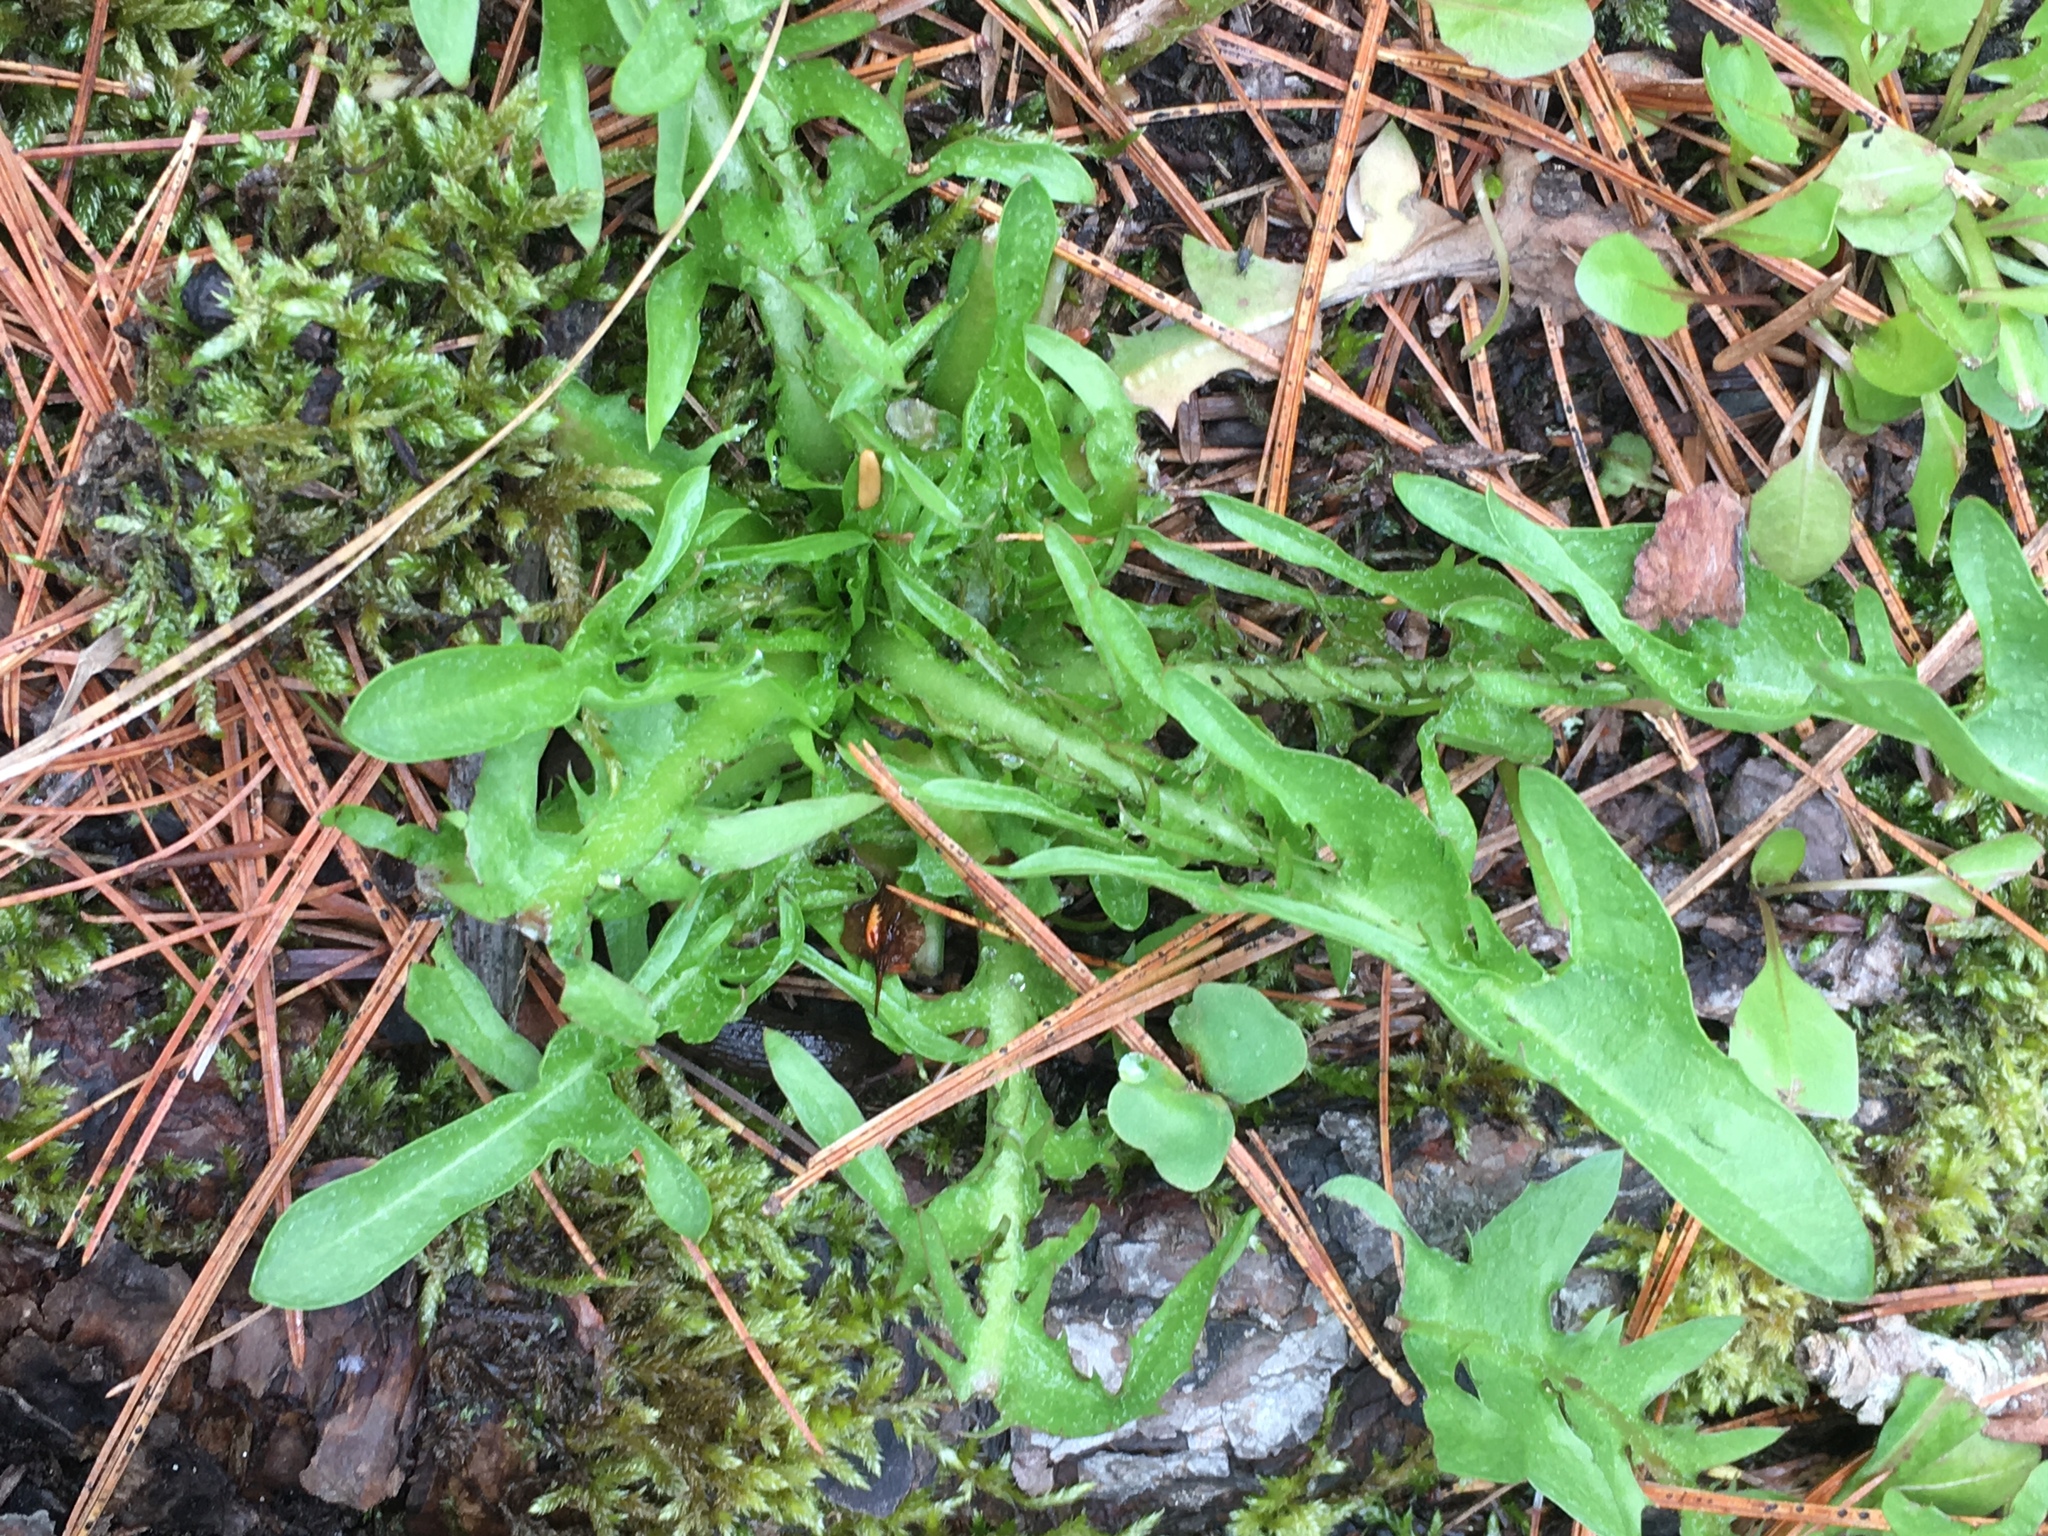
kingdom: Plantae
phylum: Tracheophyta
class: Magnoliopsida
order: Asterales
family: Asteraceae
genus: Taraxacum
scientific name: Taraxacum officinale
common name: Common dandelion
